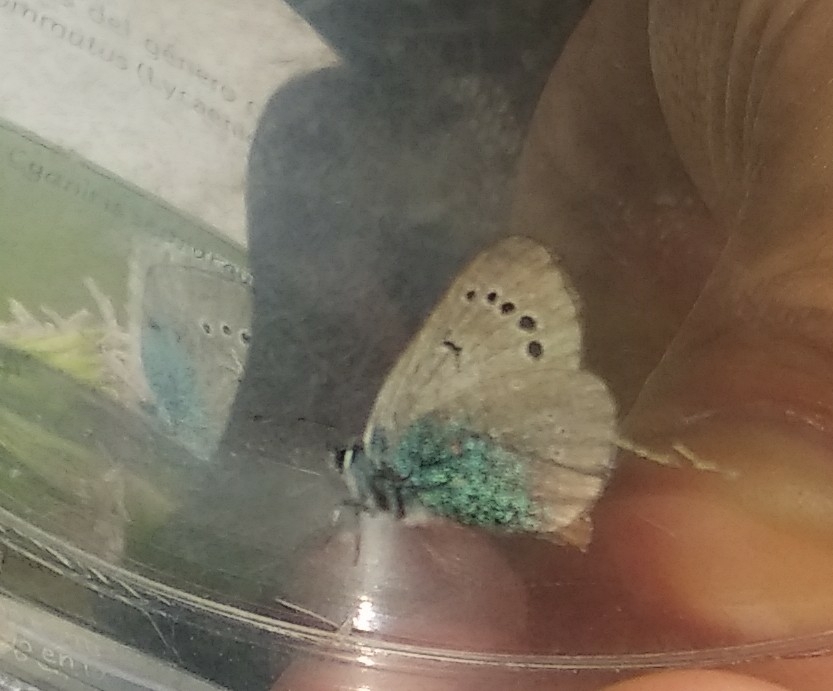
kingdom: Animalia
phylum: Arthropoda
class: Insecta
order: Lepidoptera
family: Lycaenidae
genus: Glaucopsyche
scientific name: Glaucopsyche alexis
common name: Green-underside blue
